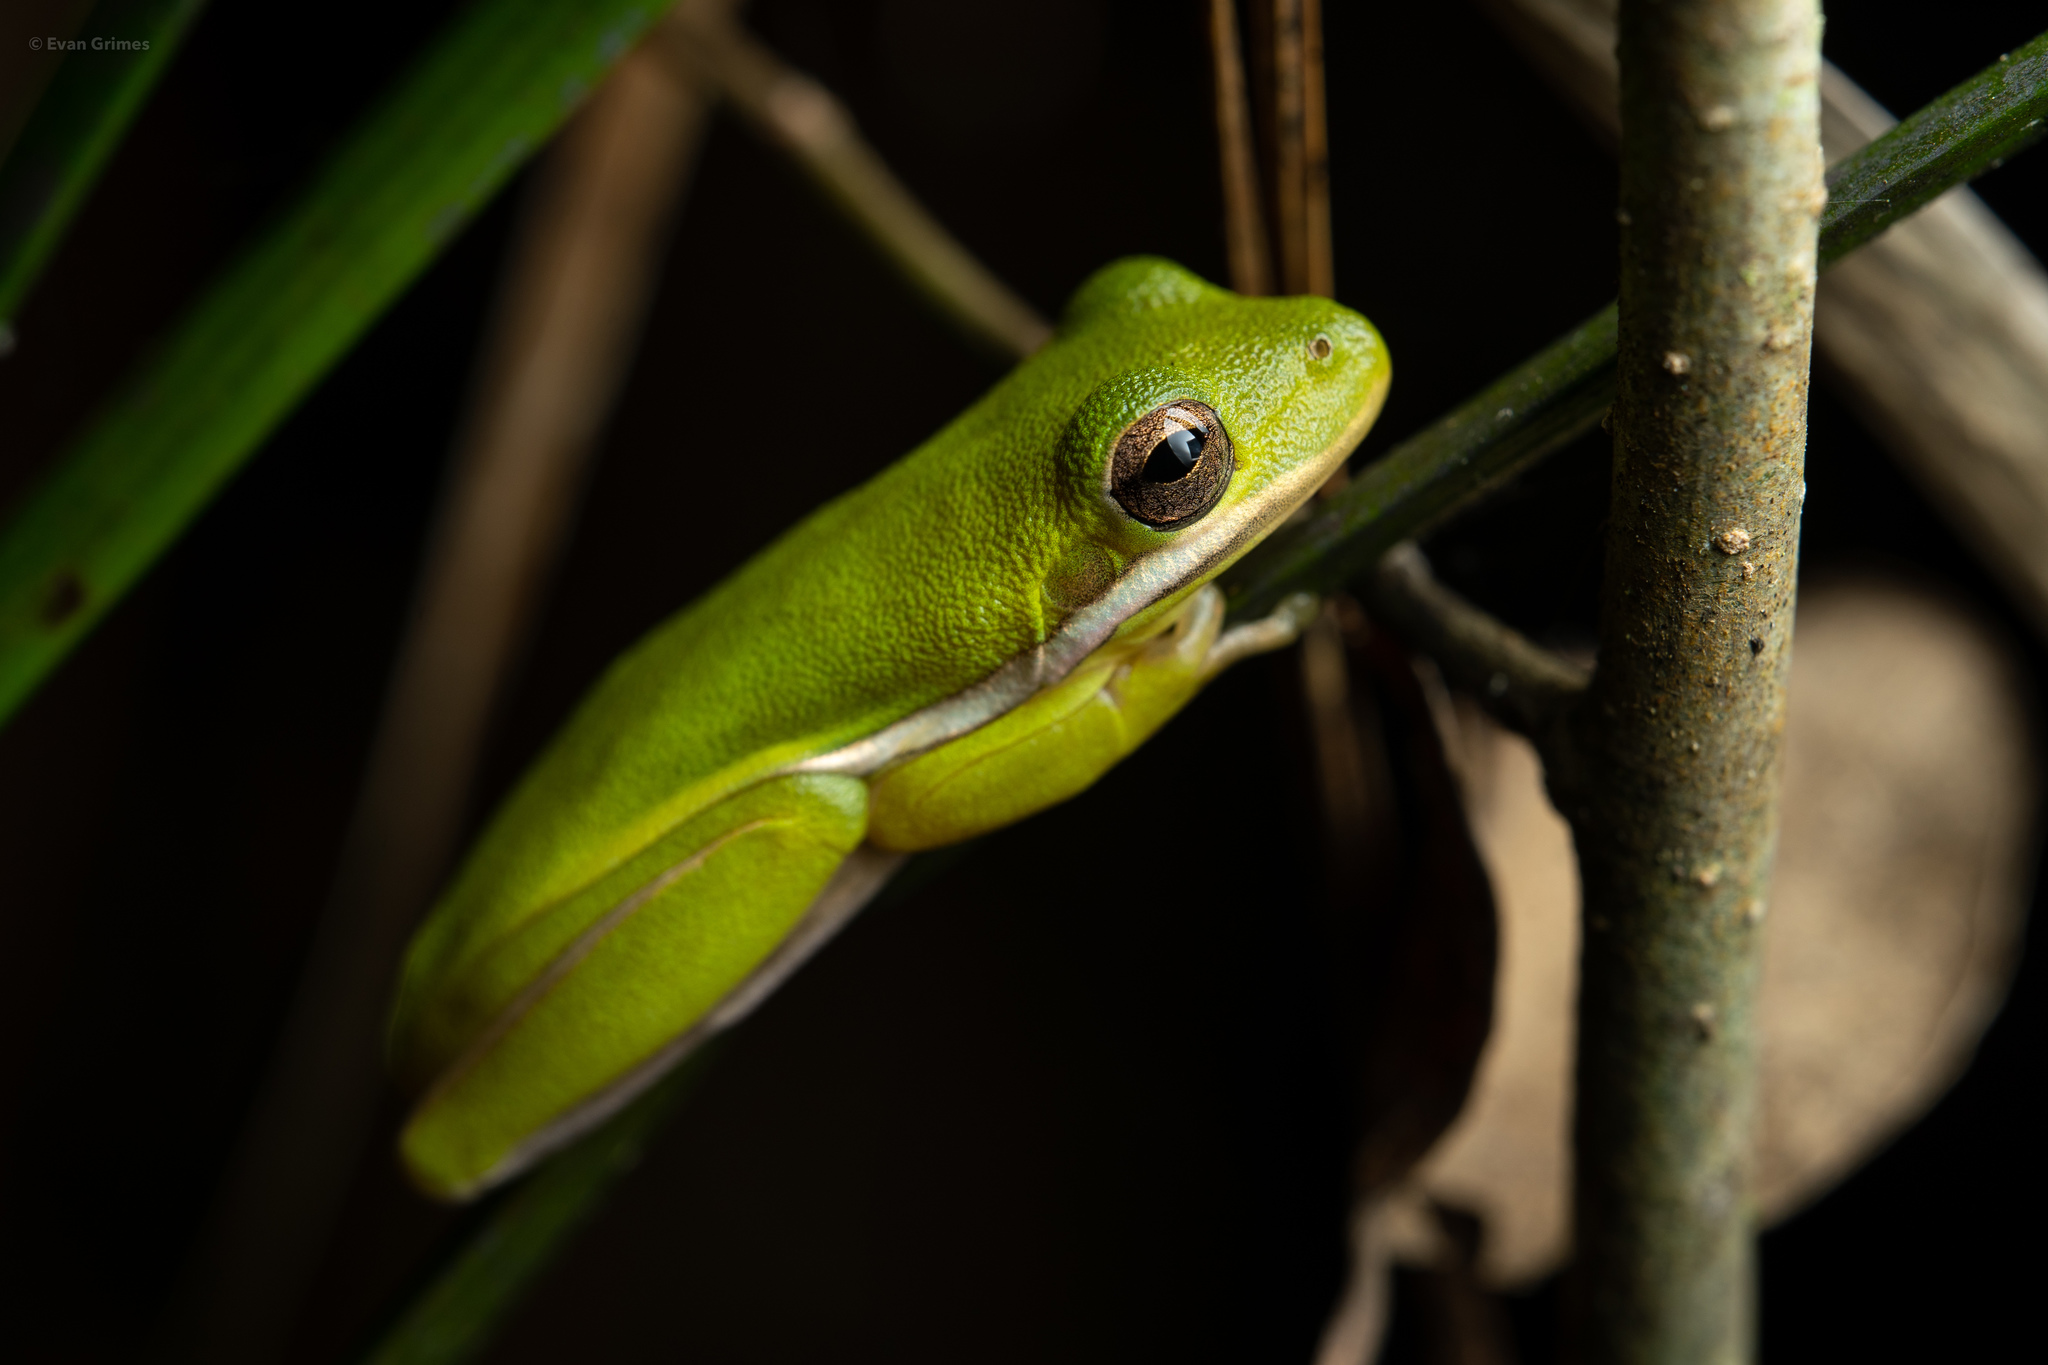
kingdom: Animalia
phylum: Chordata
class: Amphibia
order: Anura
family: Hylidae
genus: Dryophytes
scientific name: Dryophytes cinereus
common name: Green treefrog
